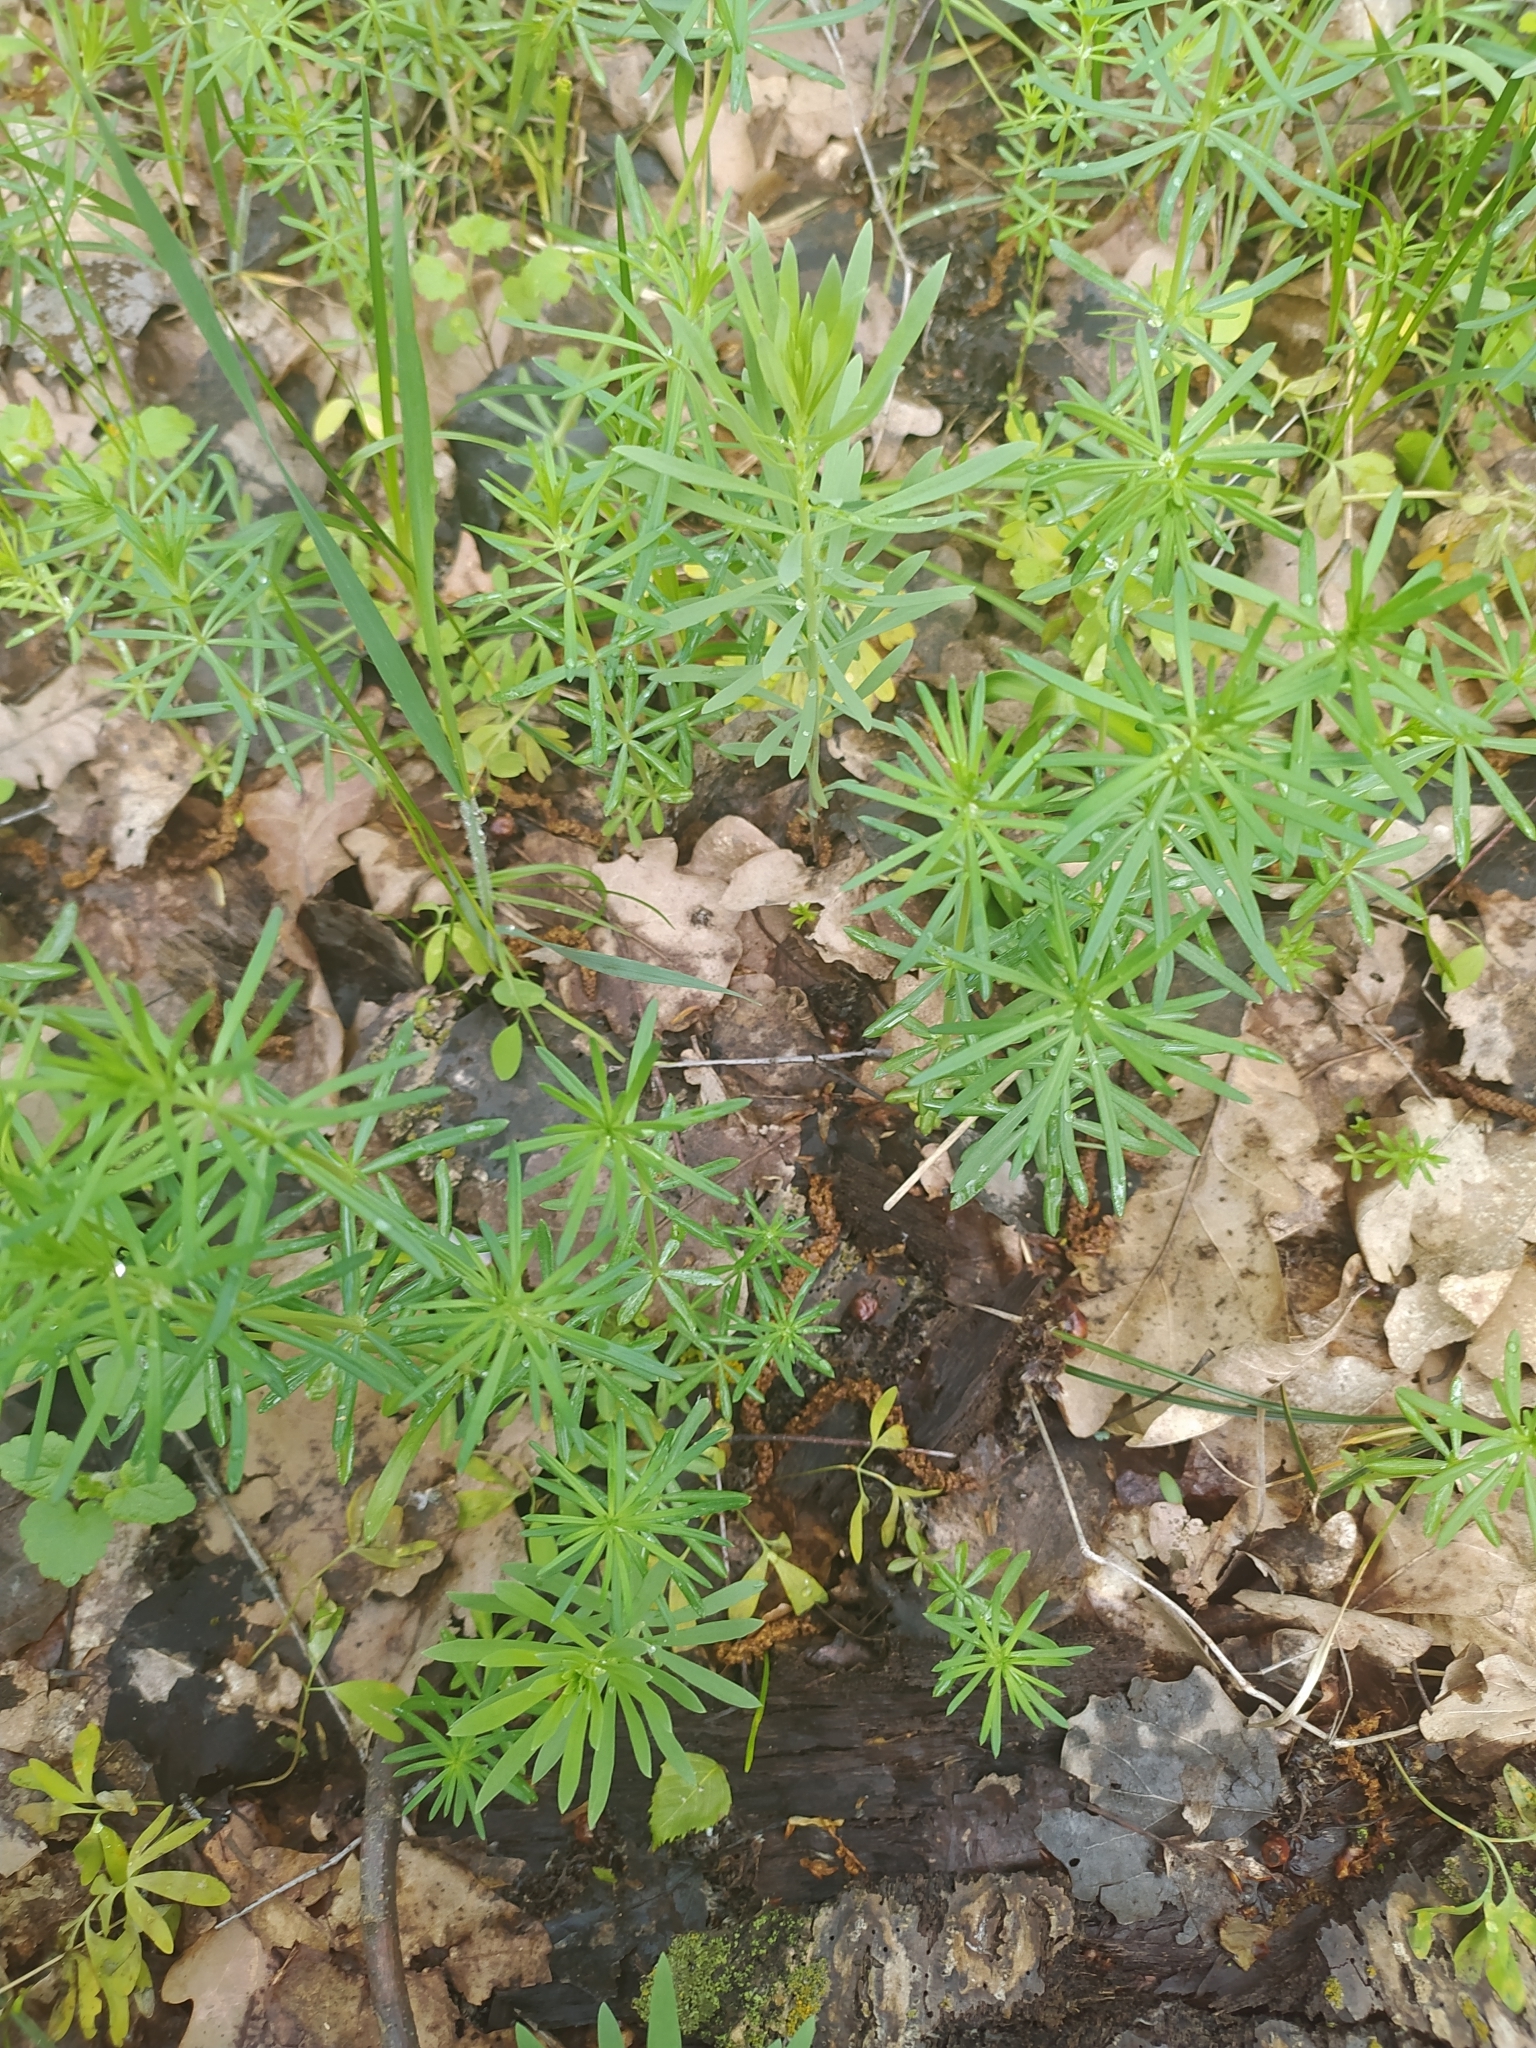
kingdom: Plantae
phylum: Tracheophyta
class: Magnoliopsida
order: Gentianales
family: Rubiaceae
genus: Galium
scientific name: Galium verum
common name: Lady's bedstraw
